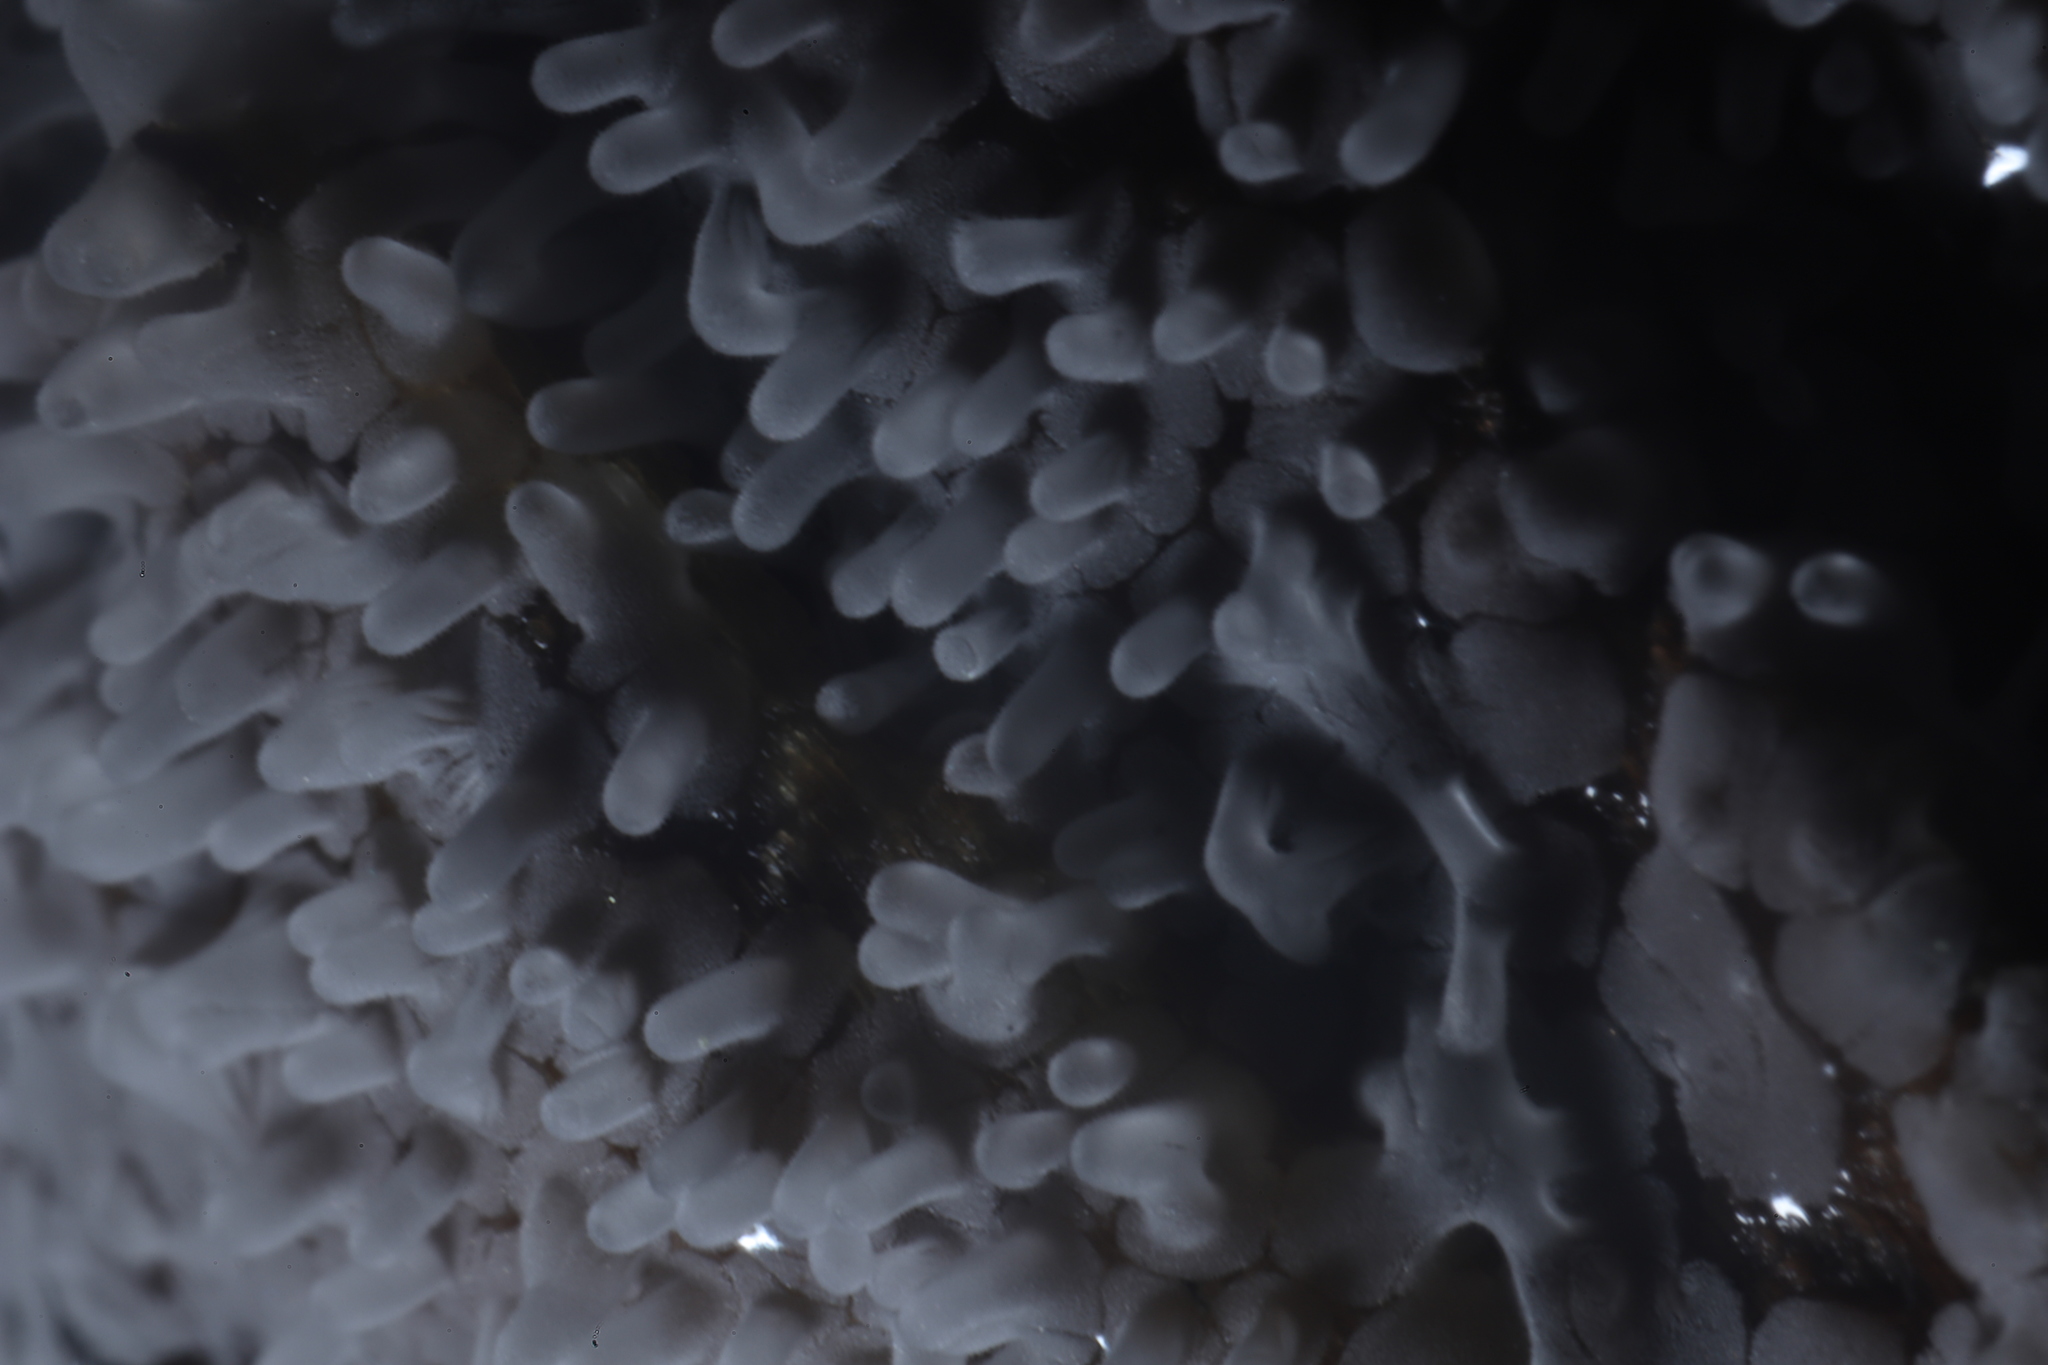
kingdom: Protozoa
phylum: Mycetozoa
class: Protosteliomycetes
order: Ceratiomyxales
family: Ceratiomyxaceae
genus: Ceratiomyxa
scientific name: Ceratiomyxa fruticulosa
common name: Honeycomb coral slime mold
